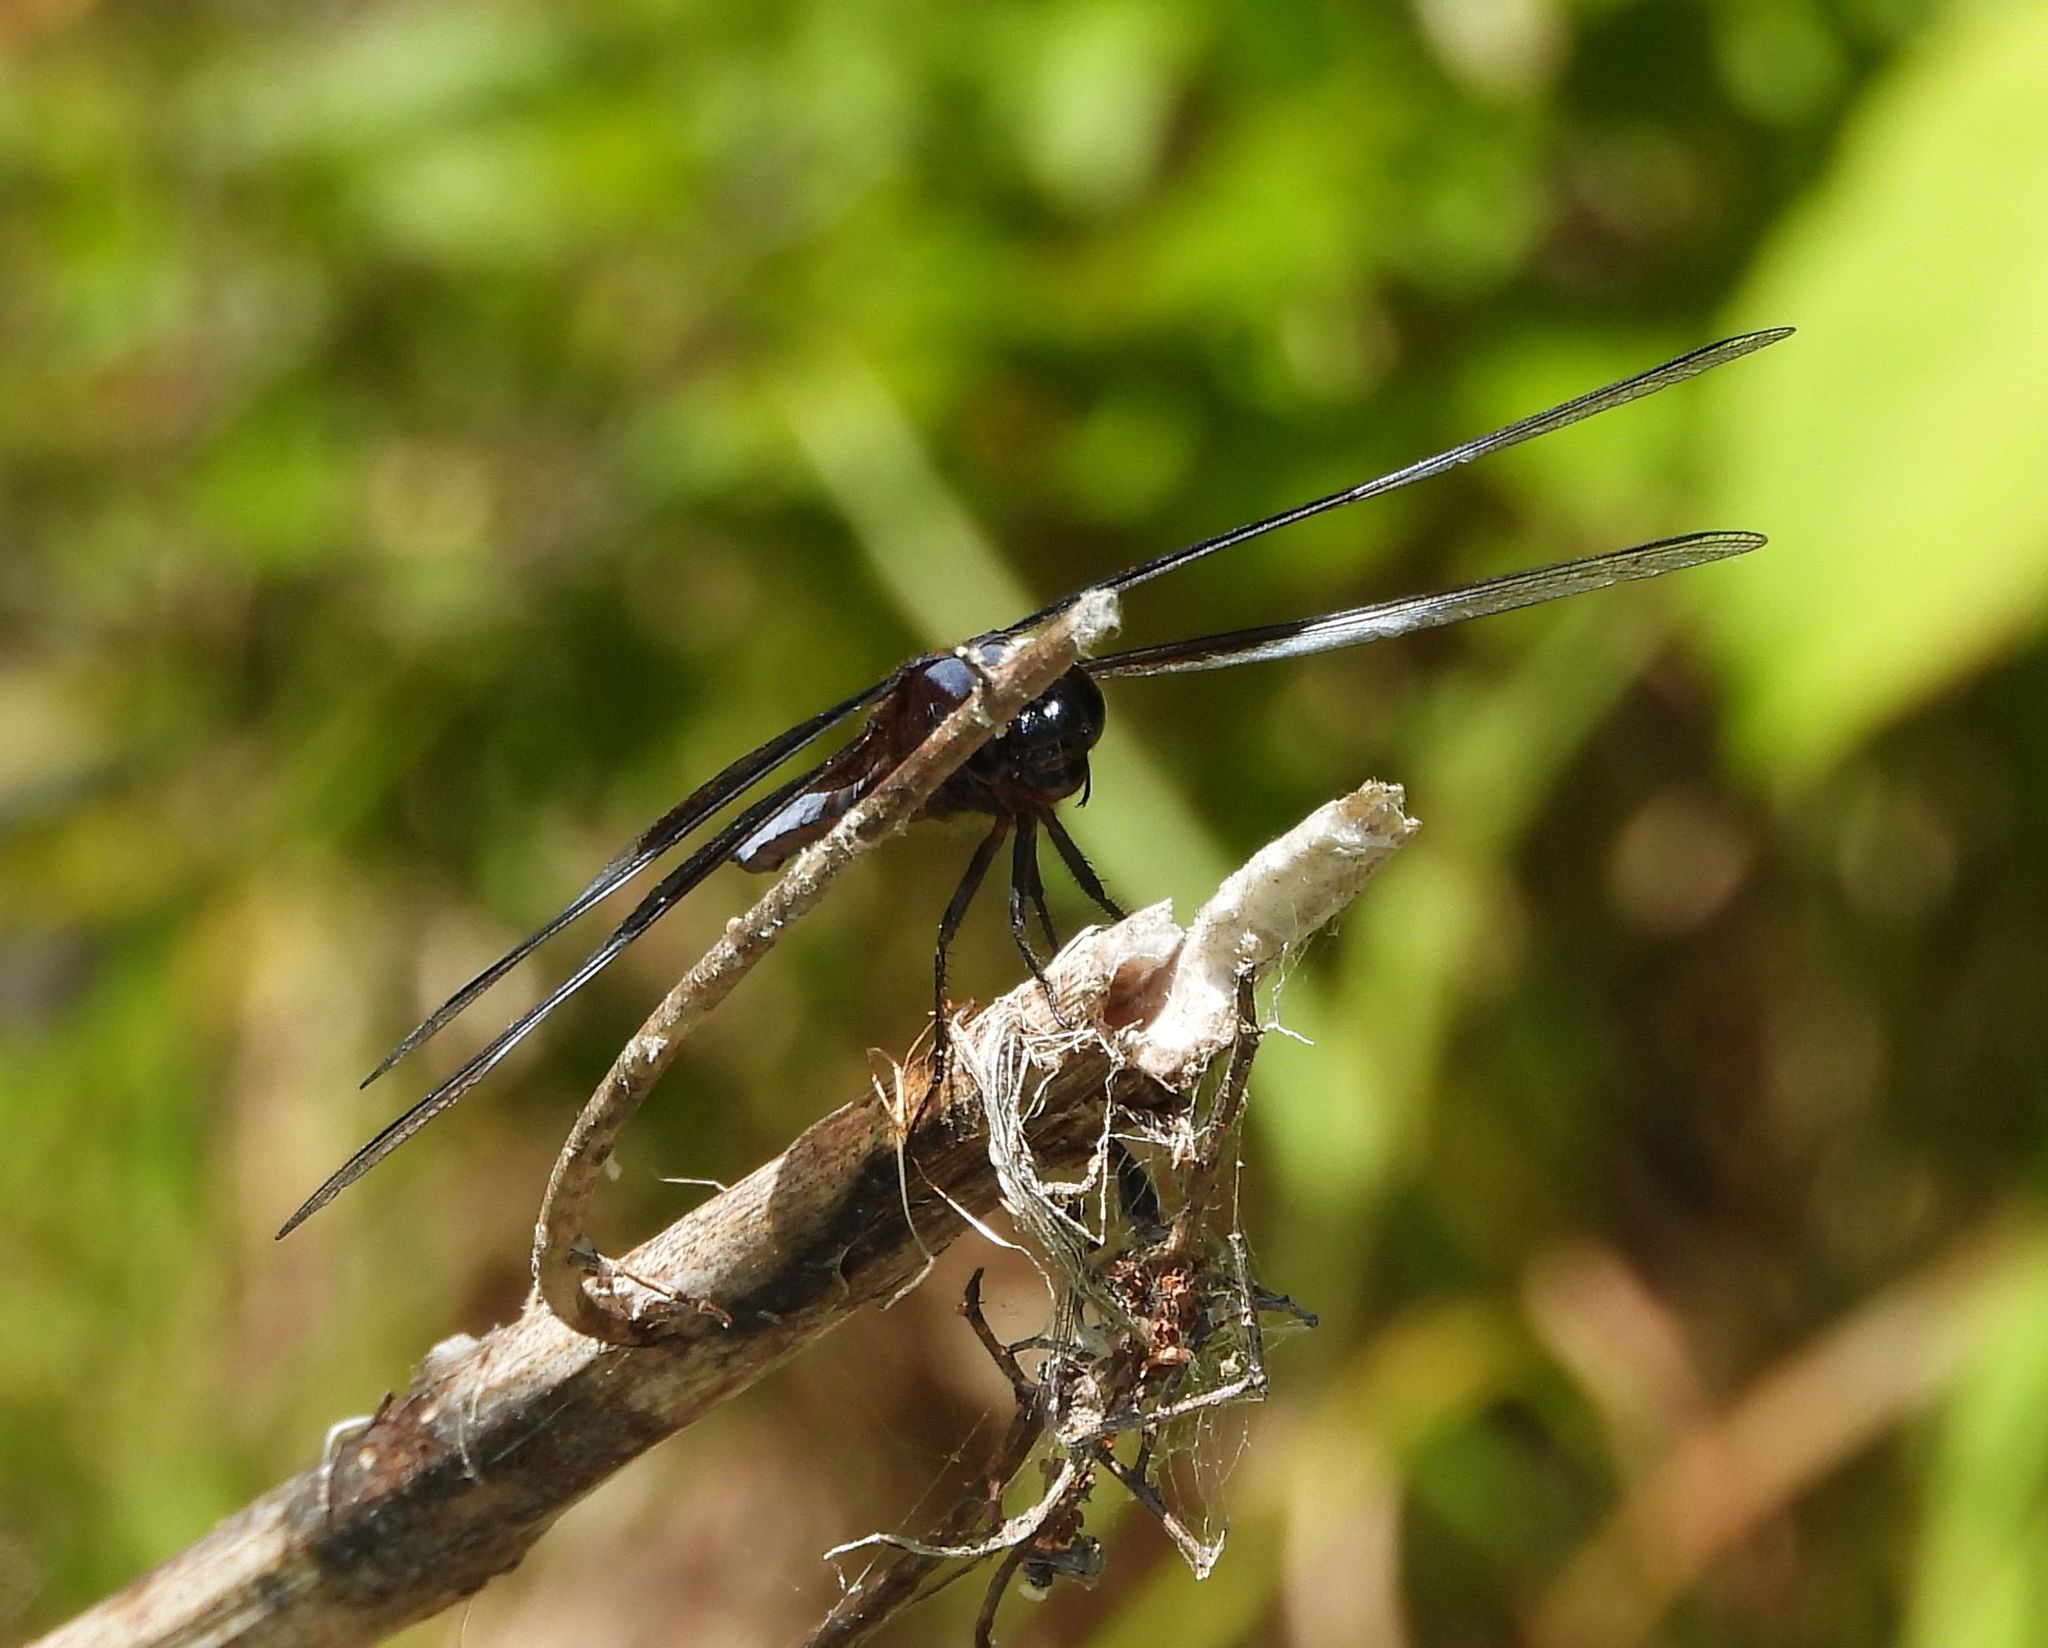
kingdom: Animalia
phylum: Arthropoda
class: Insecta
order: Odonata
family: Libellulidae
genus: Libellula
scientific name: Libellula luctuosa
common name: Widow skimmer
